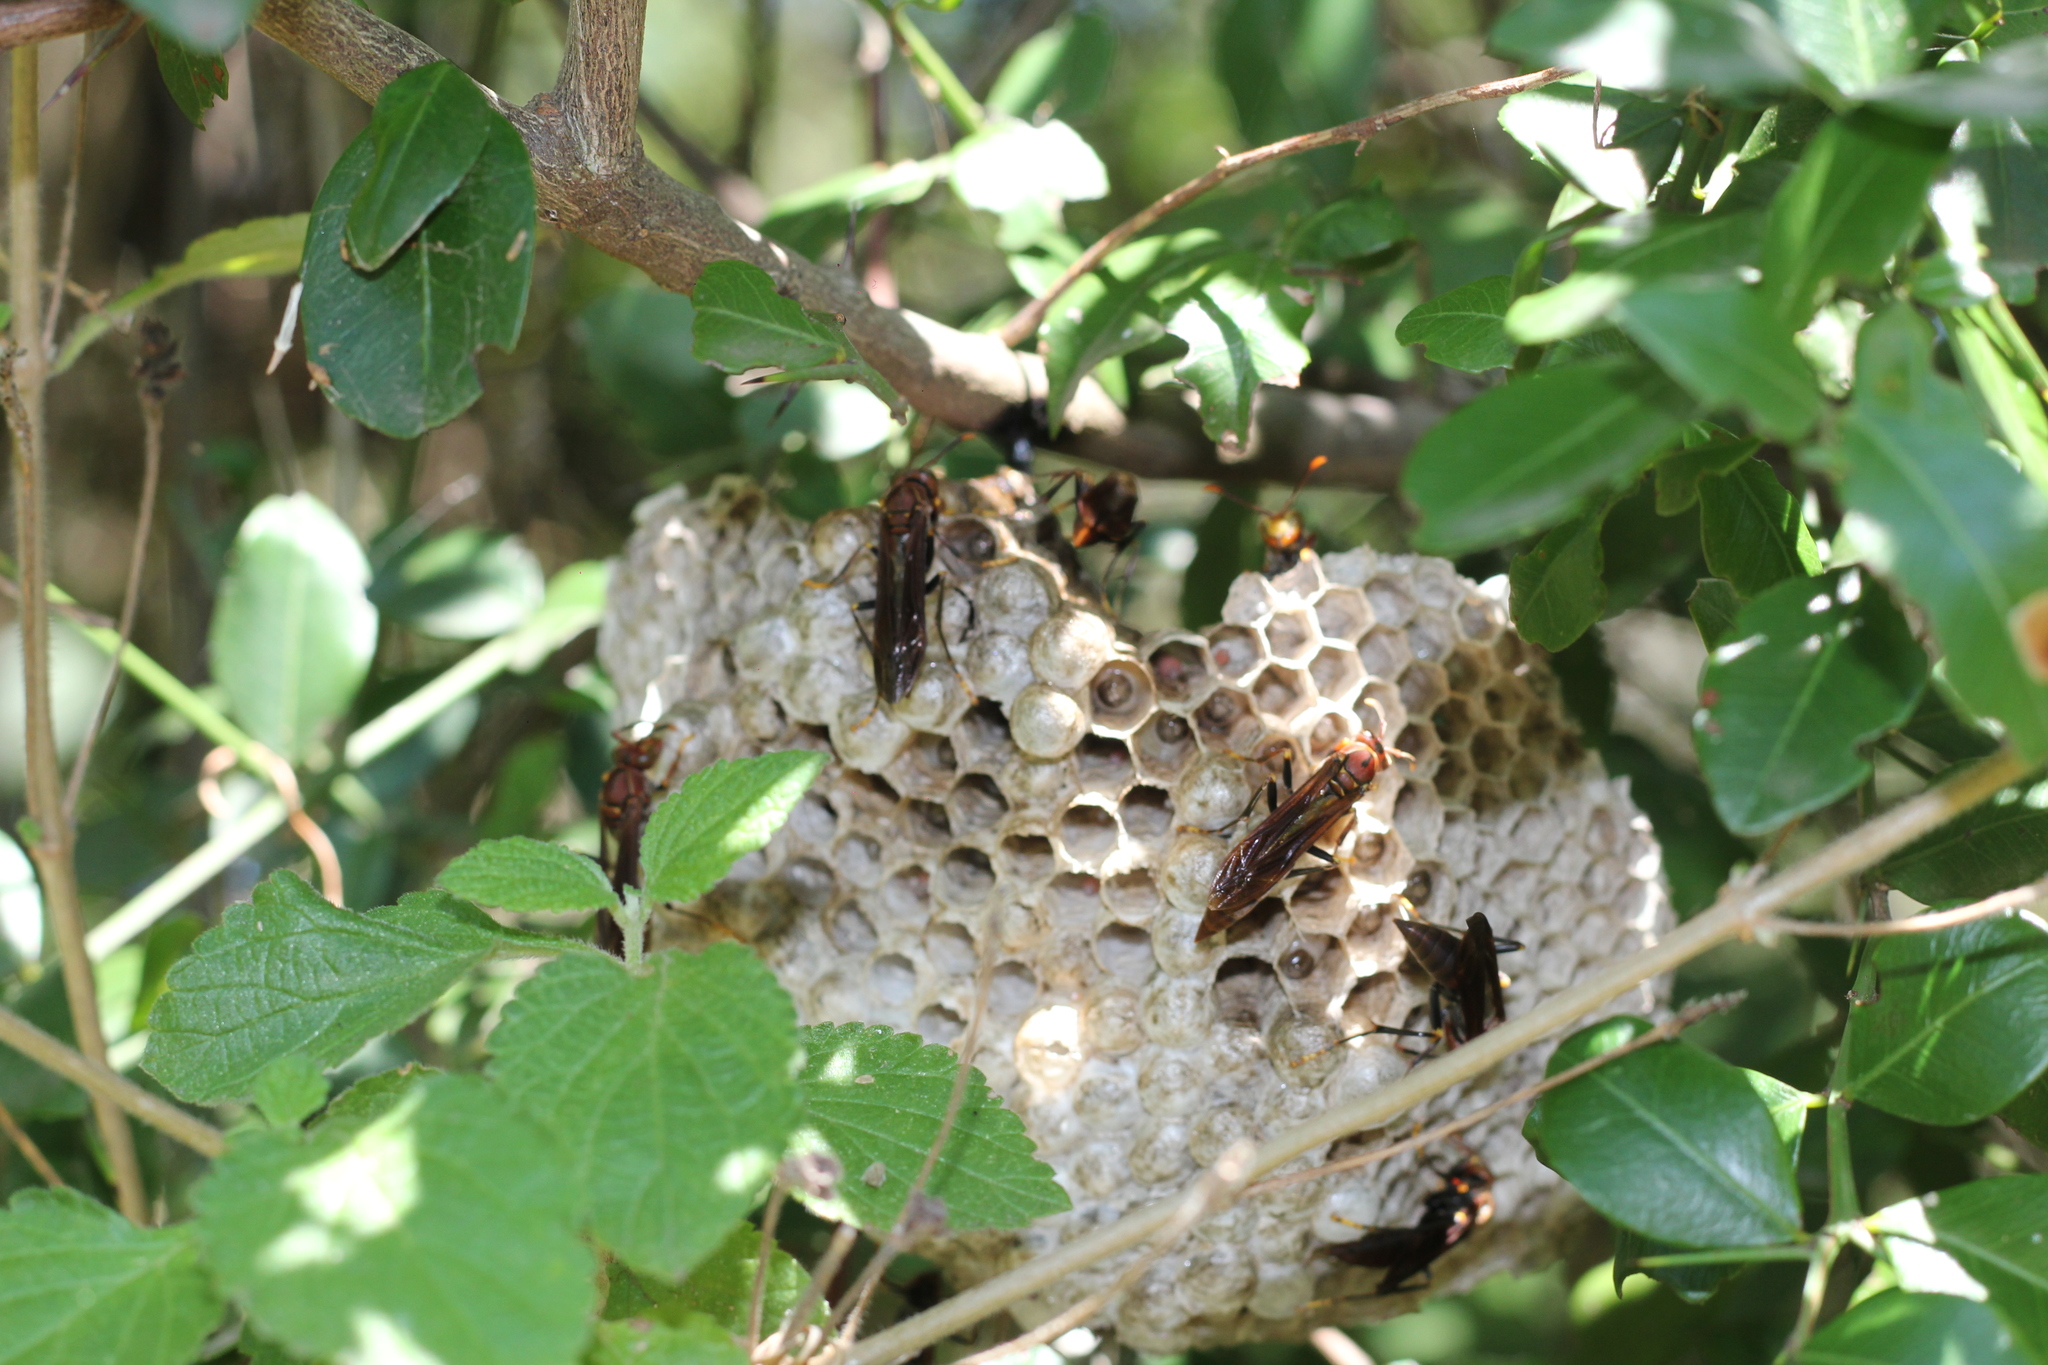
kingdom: Animalia
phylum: Arthropoda
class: Insecta
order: Hymenoptera
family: Pompilidae
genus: Aphanilopterus
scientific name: Aphanilopterus
